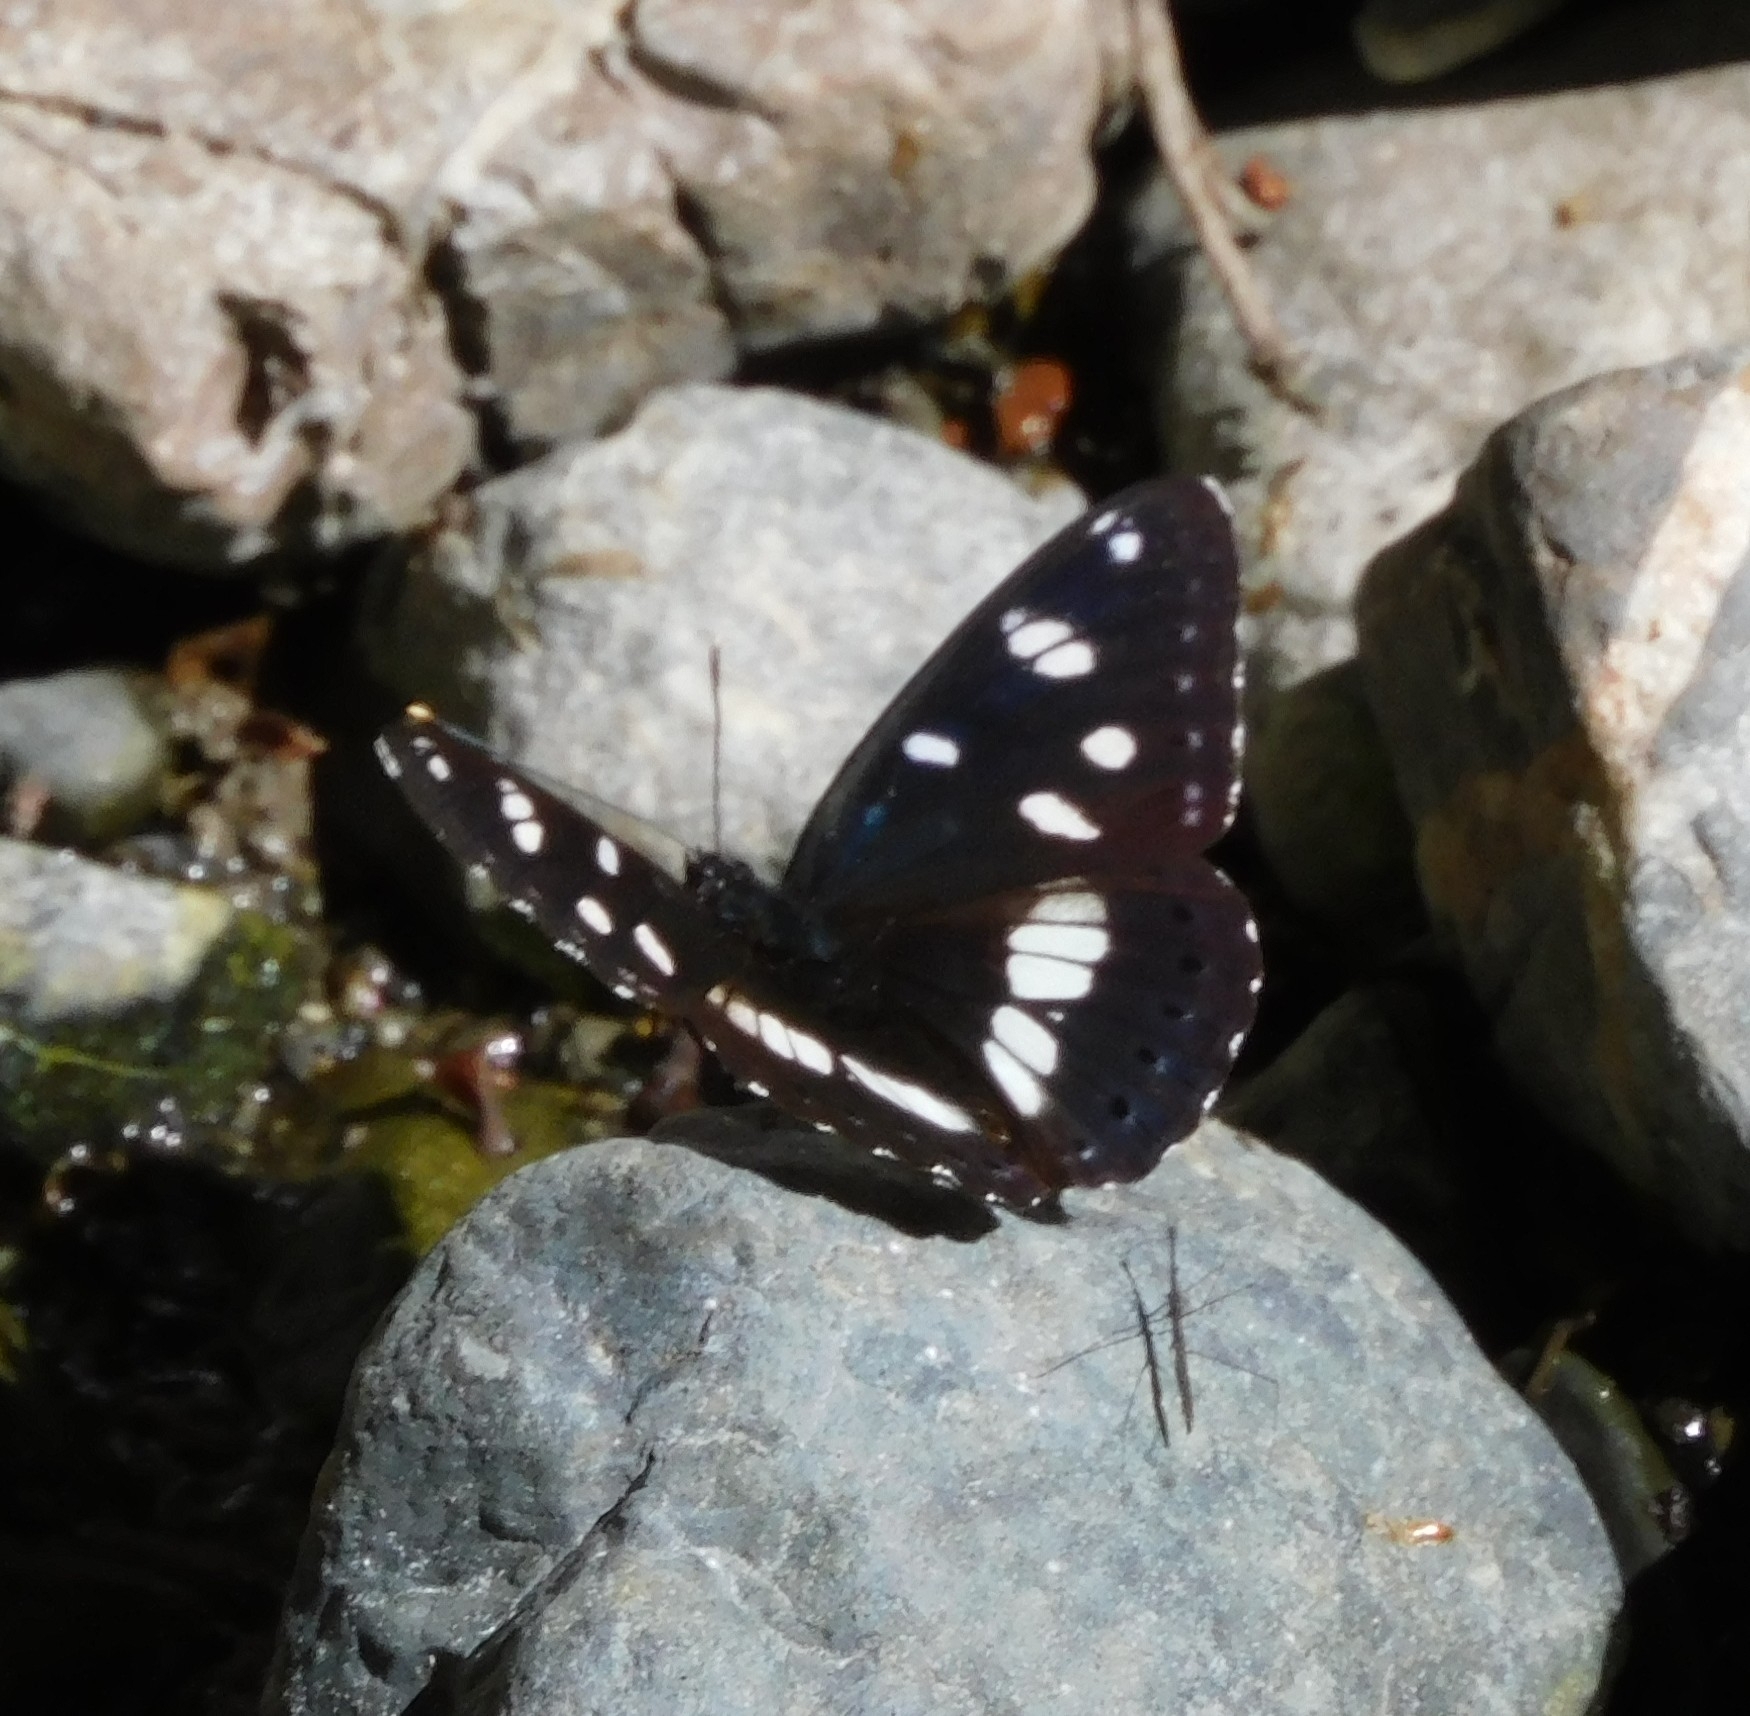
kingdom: Animalia
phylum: Arthropoda
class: Insecta
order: Lepidoptera
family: Nymphalidae
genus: Limenitis
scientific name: Limenitis reducta
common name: Southern white admiral
